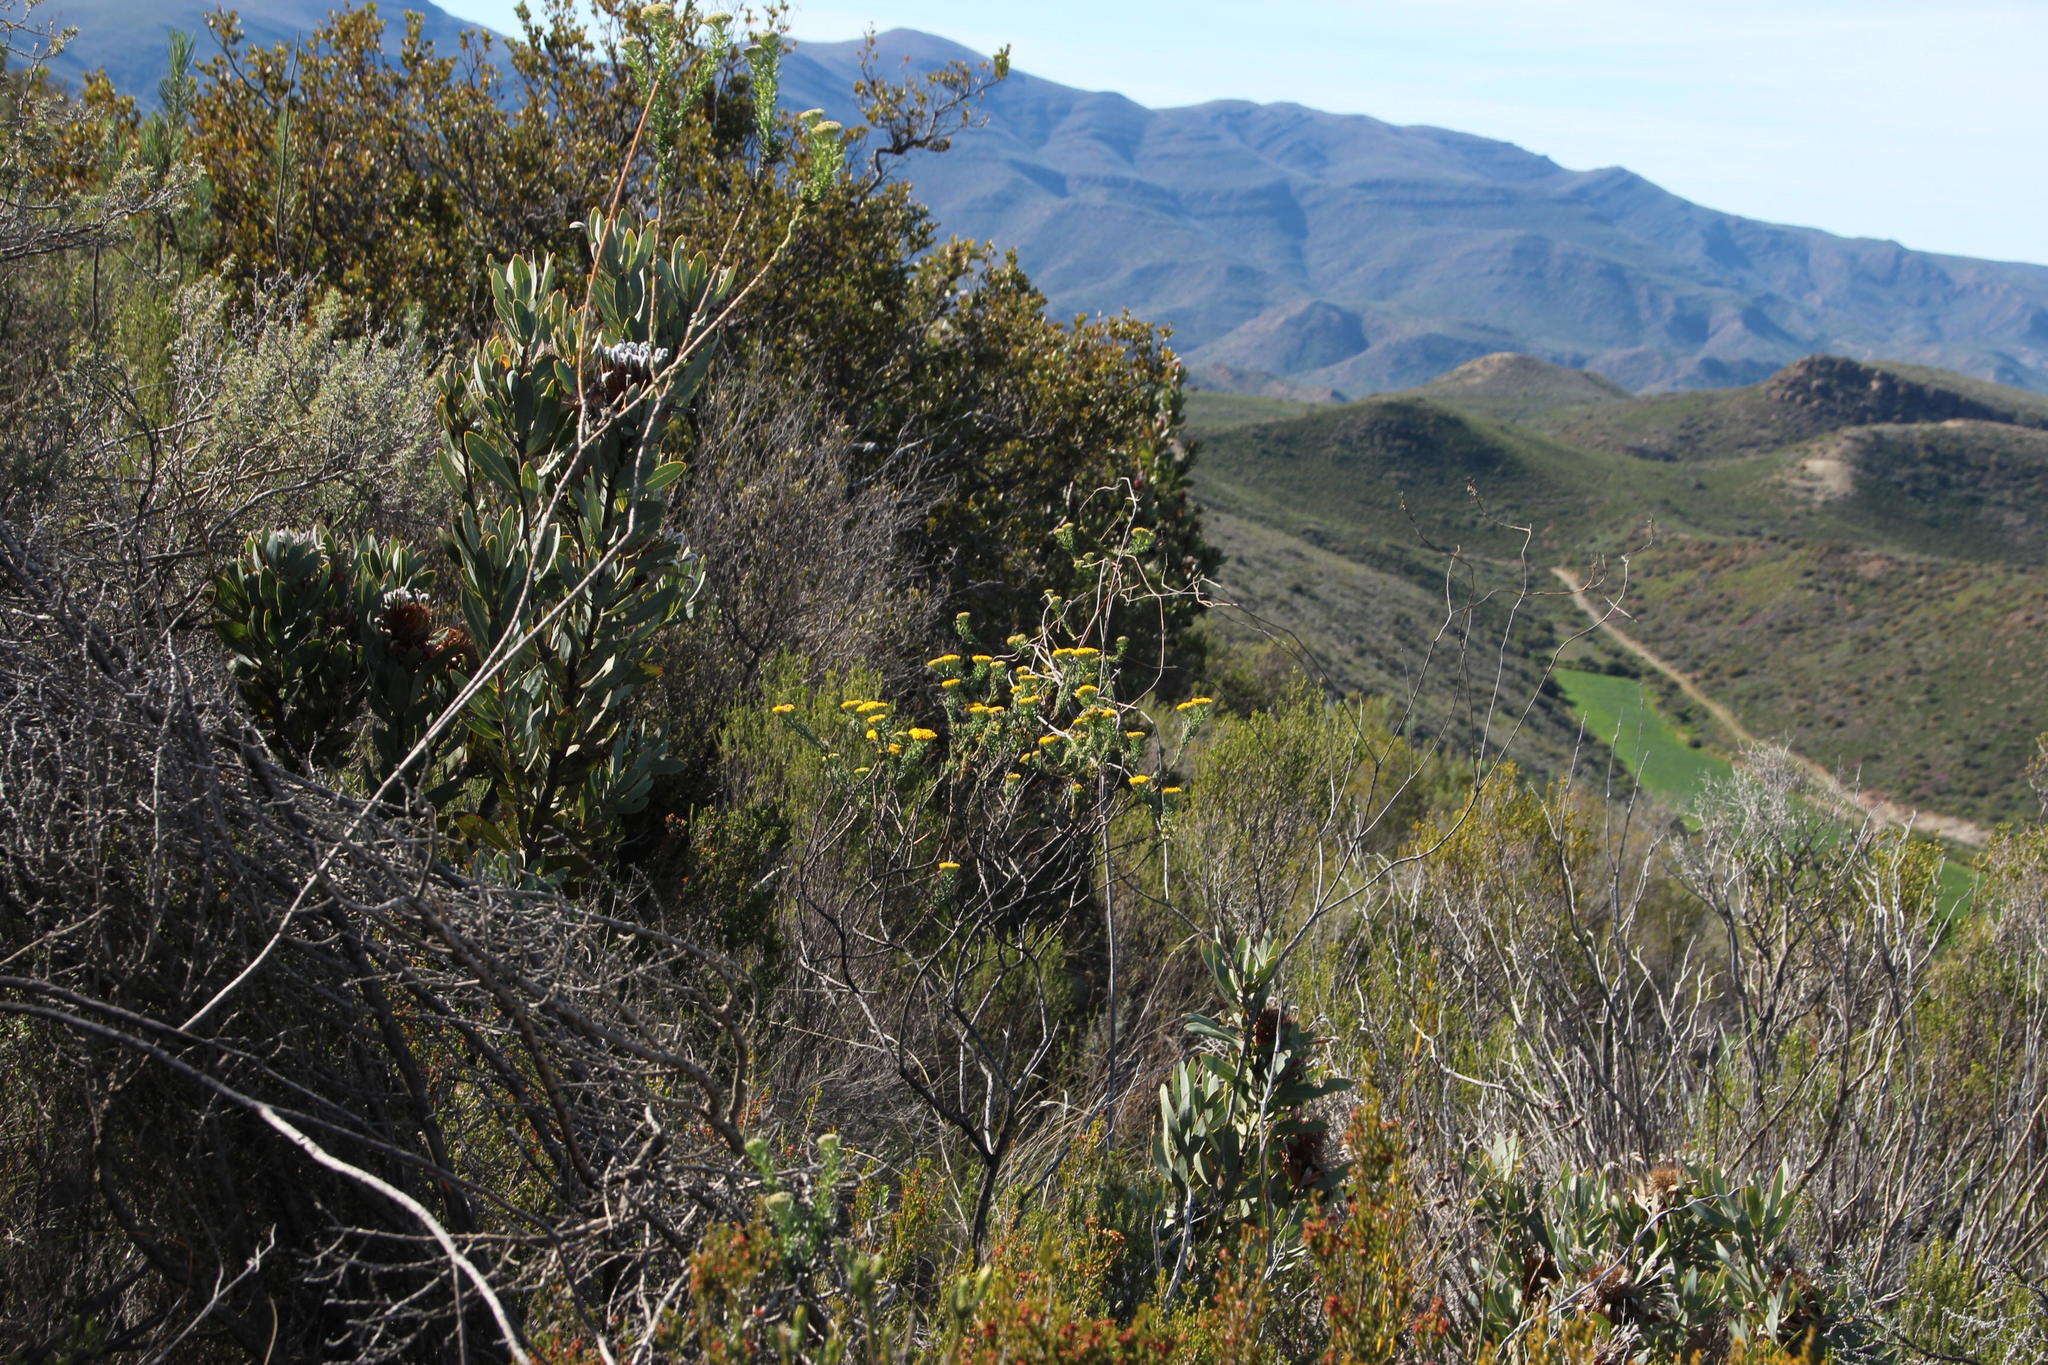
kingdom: Plantae
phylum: Tracheophyta
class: Magnoliopsida
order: Asterales
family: Asteraceae
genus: Hymenolepis
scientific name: Hymenolepis incisa
